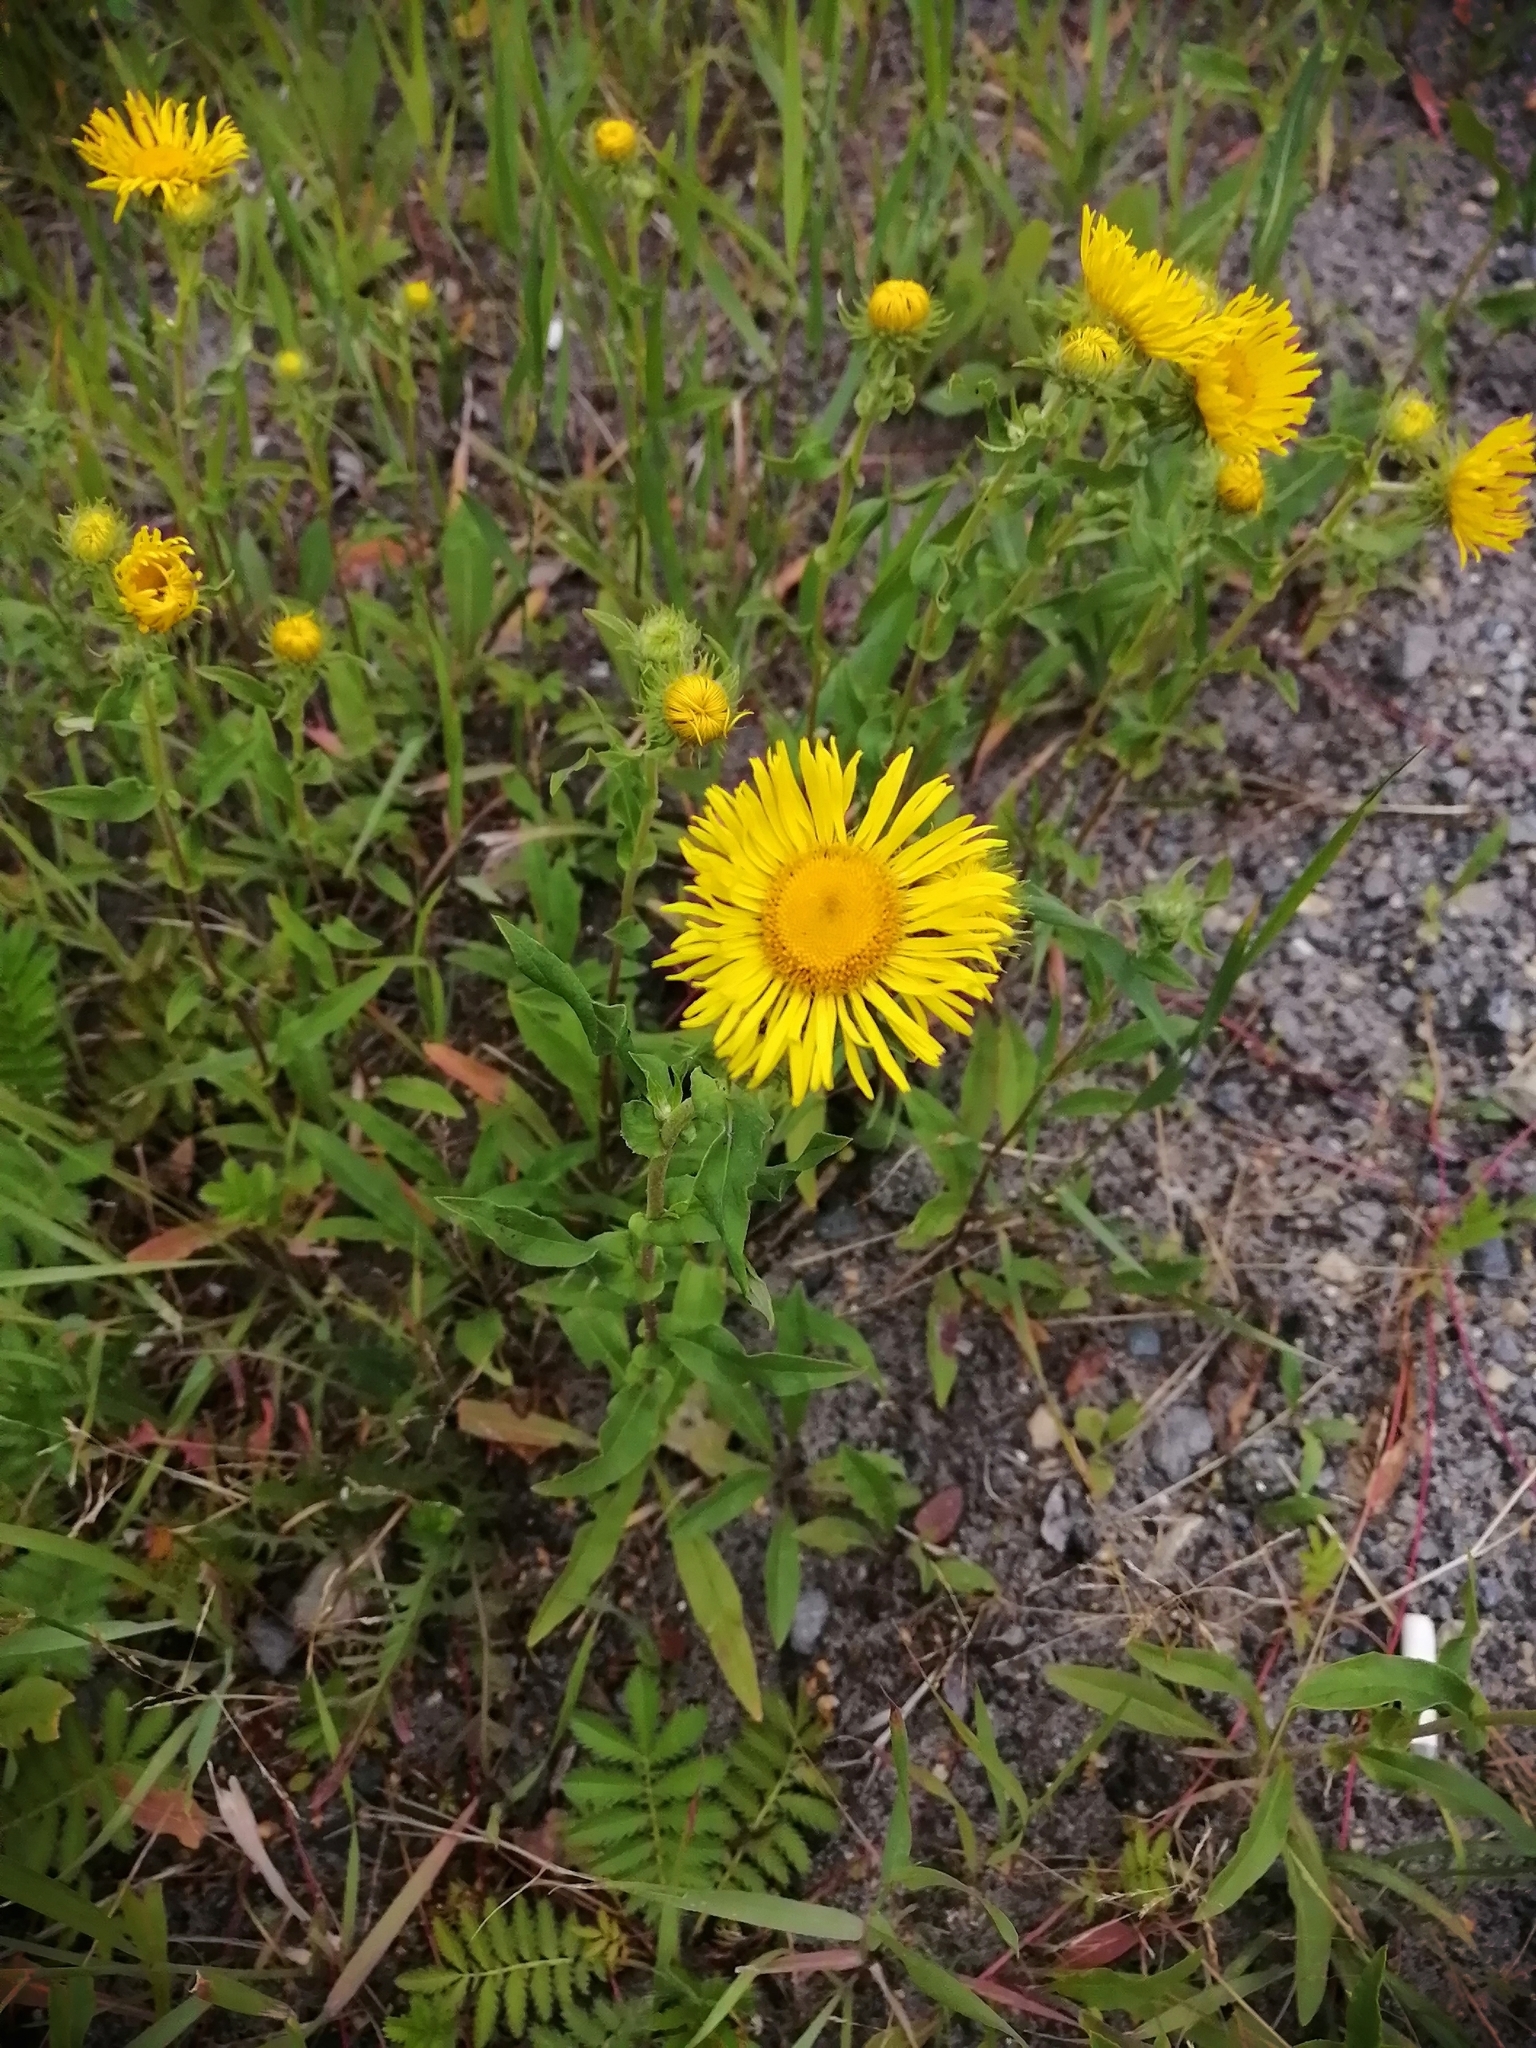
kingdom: Plantae
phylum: Tracheophyta
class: Magnoliopsida
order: Asterales
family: Asteraceae
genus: Pentanema
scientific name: Pentanema britannicum
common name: British elecampane
